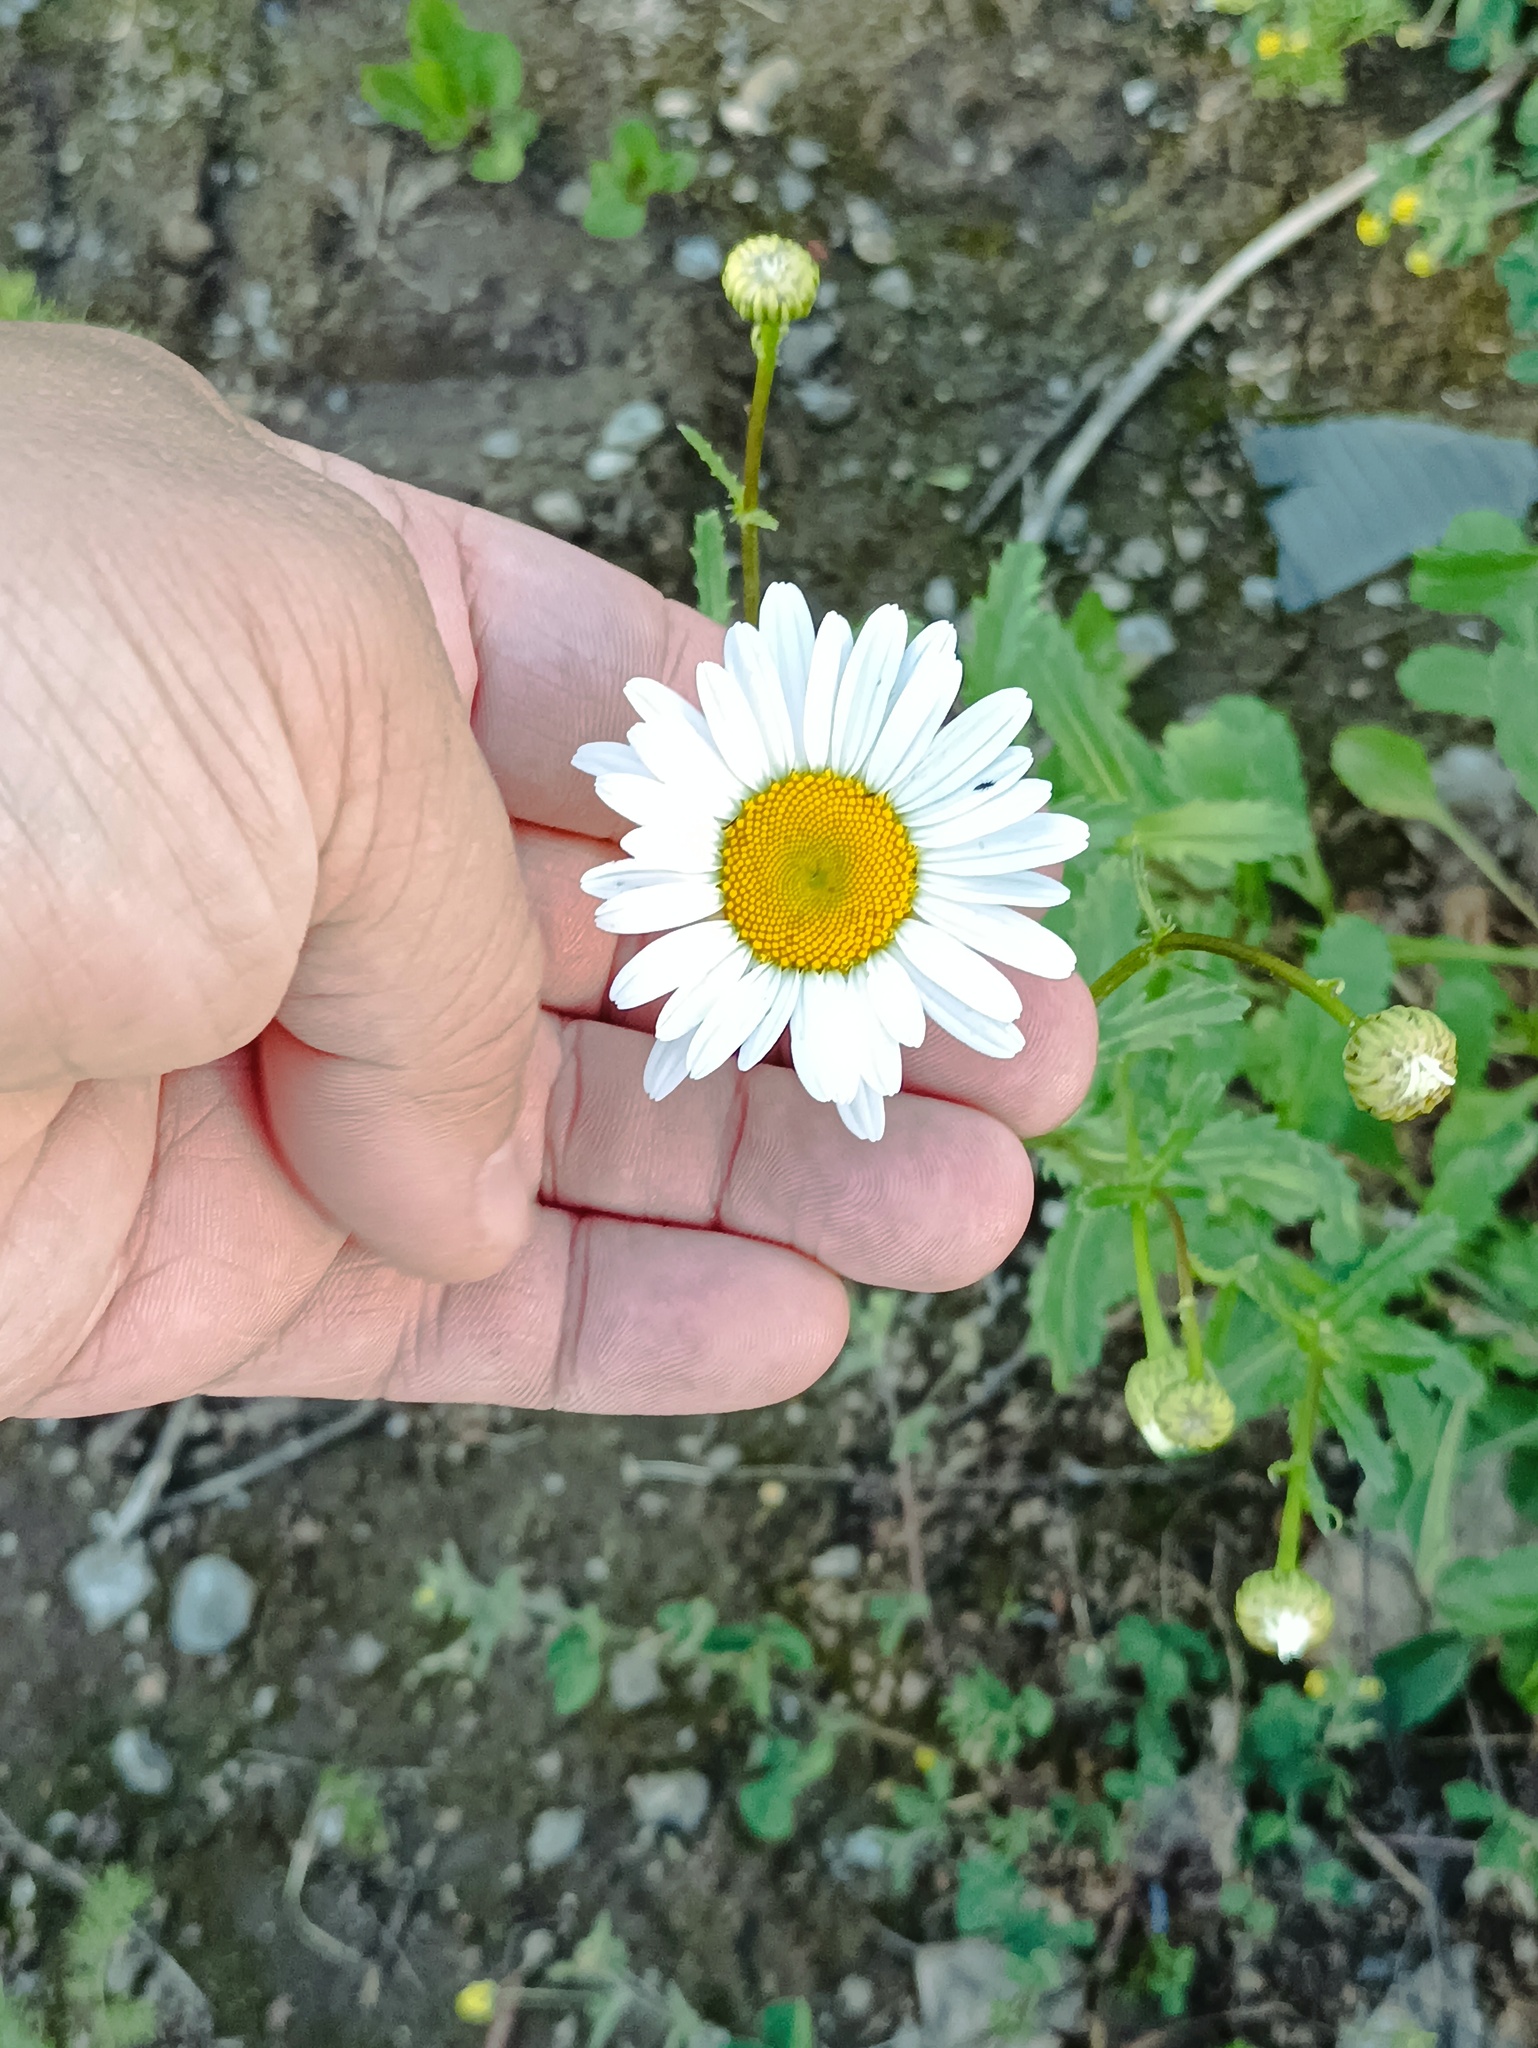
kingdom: Plantae
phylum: Tracheophyta
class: Magnoliopsida
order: Asterales
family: Asteraceae
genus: Leucanthemum
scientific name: Leucanthemum vulgare
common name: Oxeye daisy
